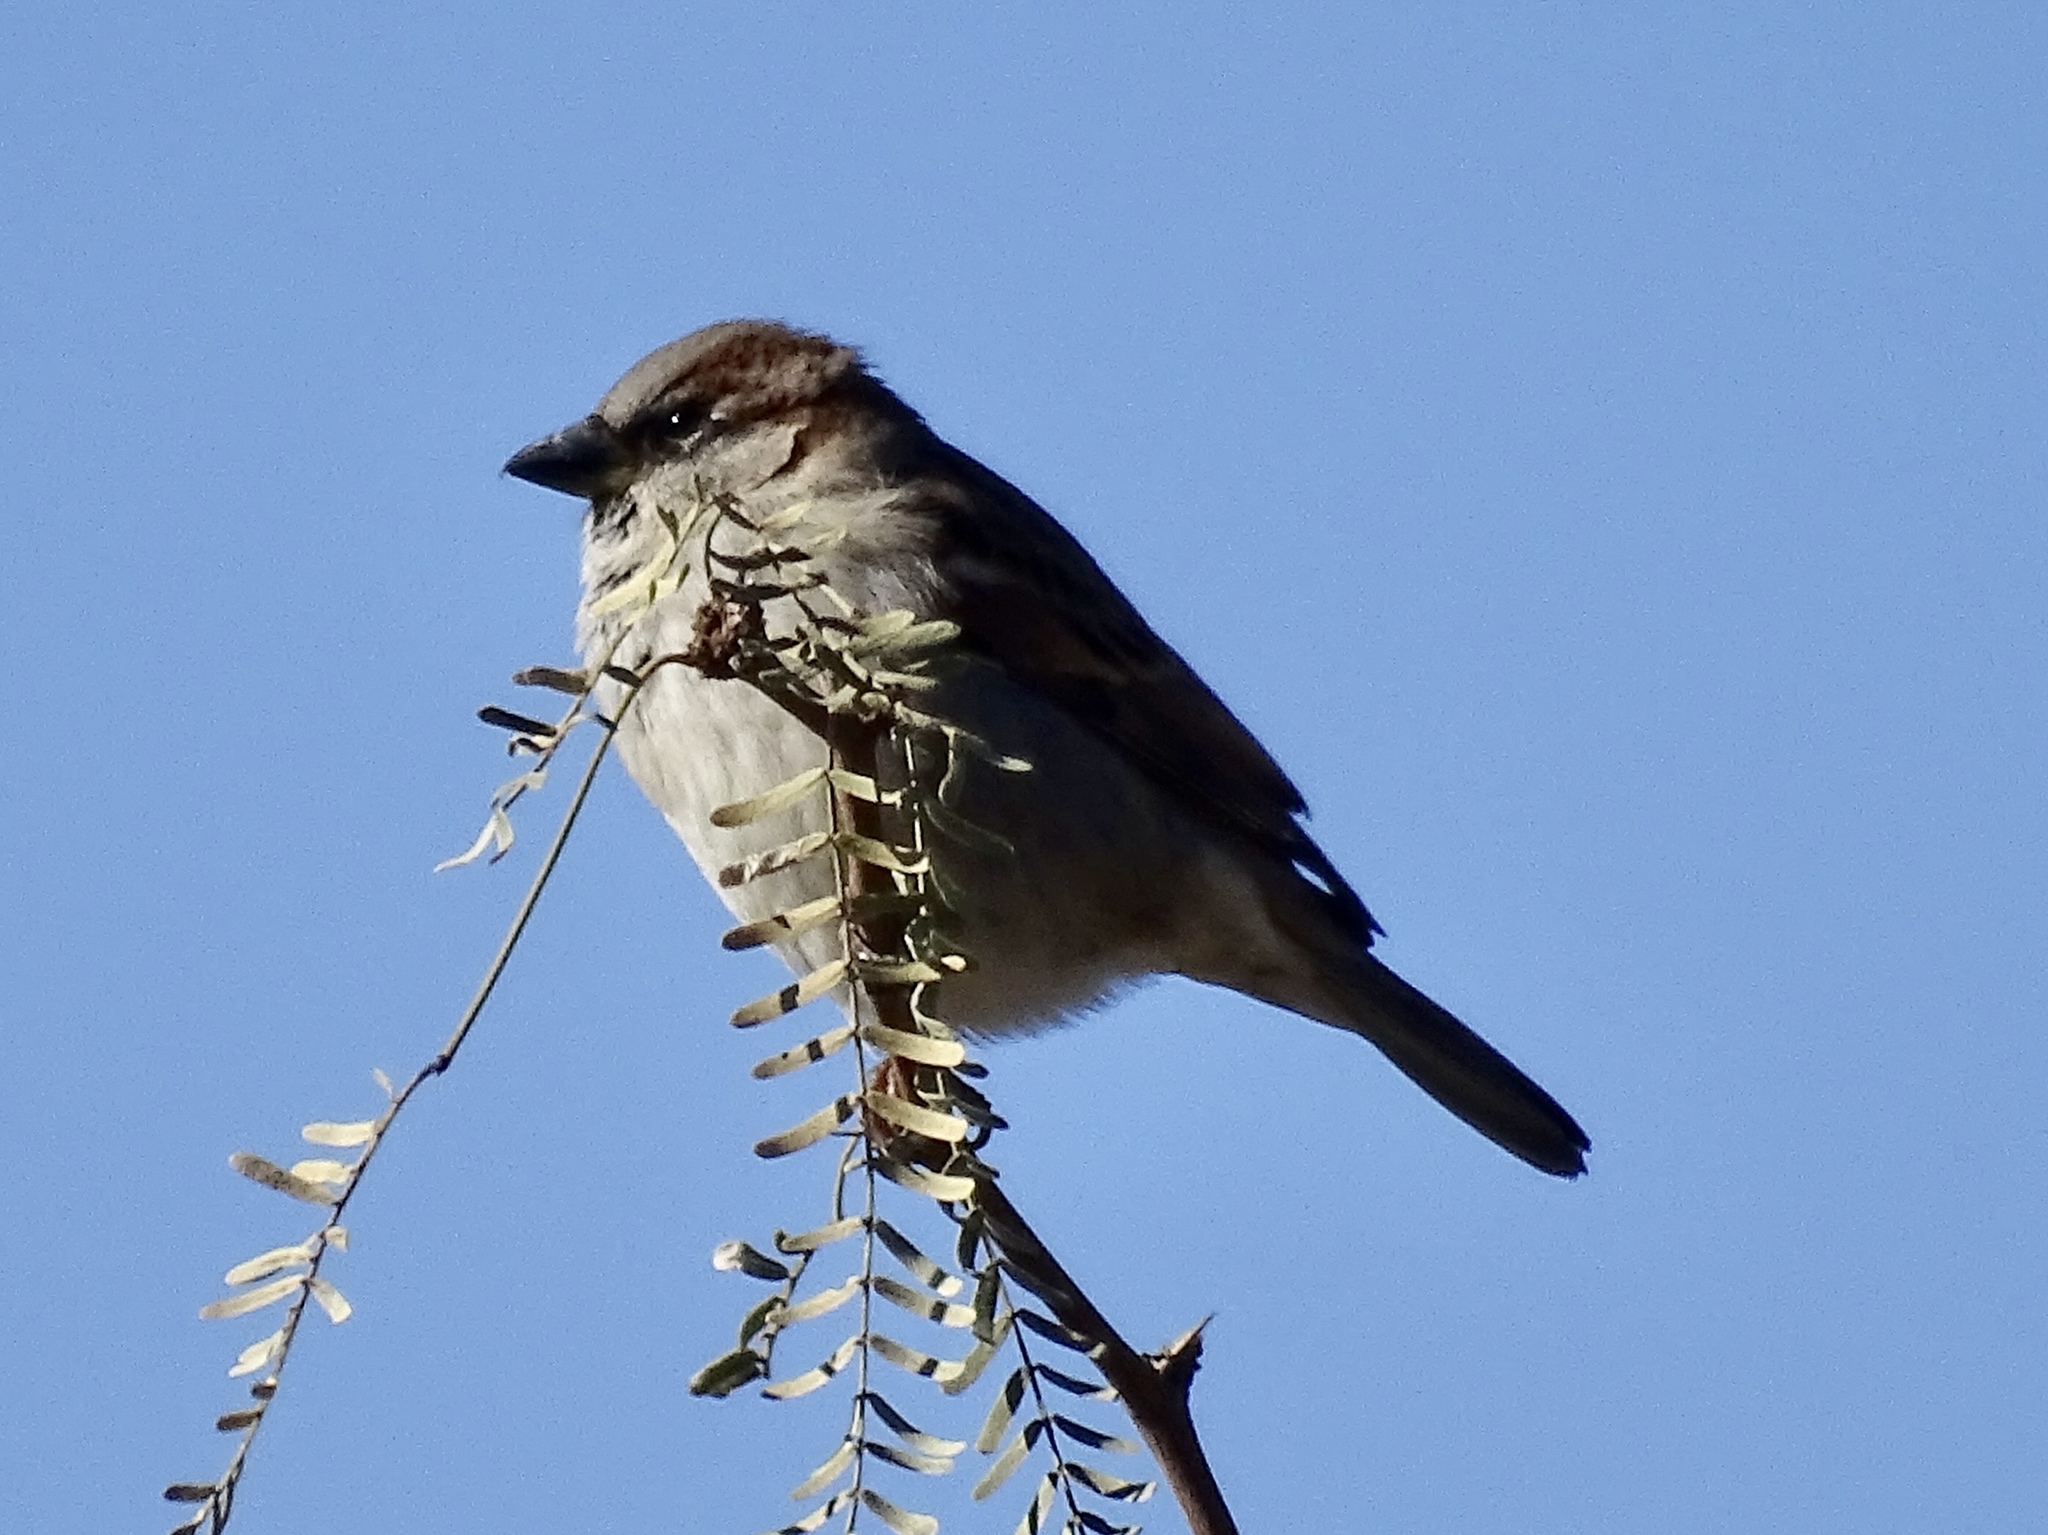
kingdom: Animalia
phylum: Chordata
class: Aves
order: Passeriformes
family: Passeridae
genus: Passer
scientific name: Passer domesticus
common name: House sparrow
